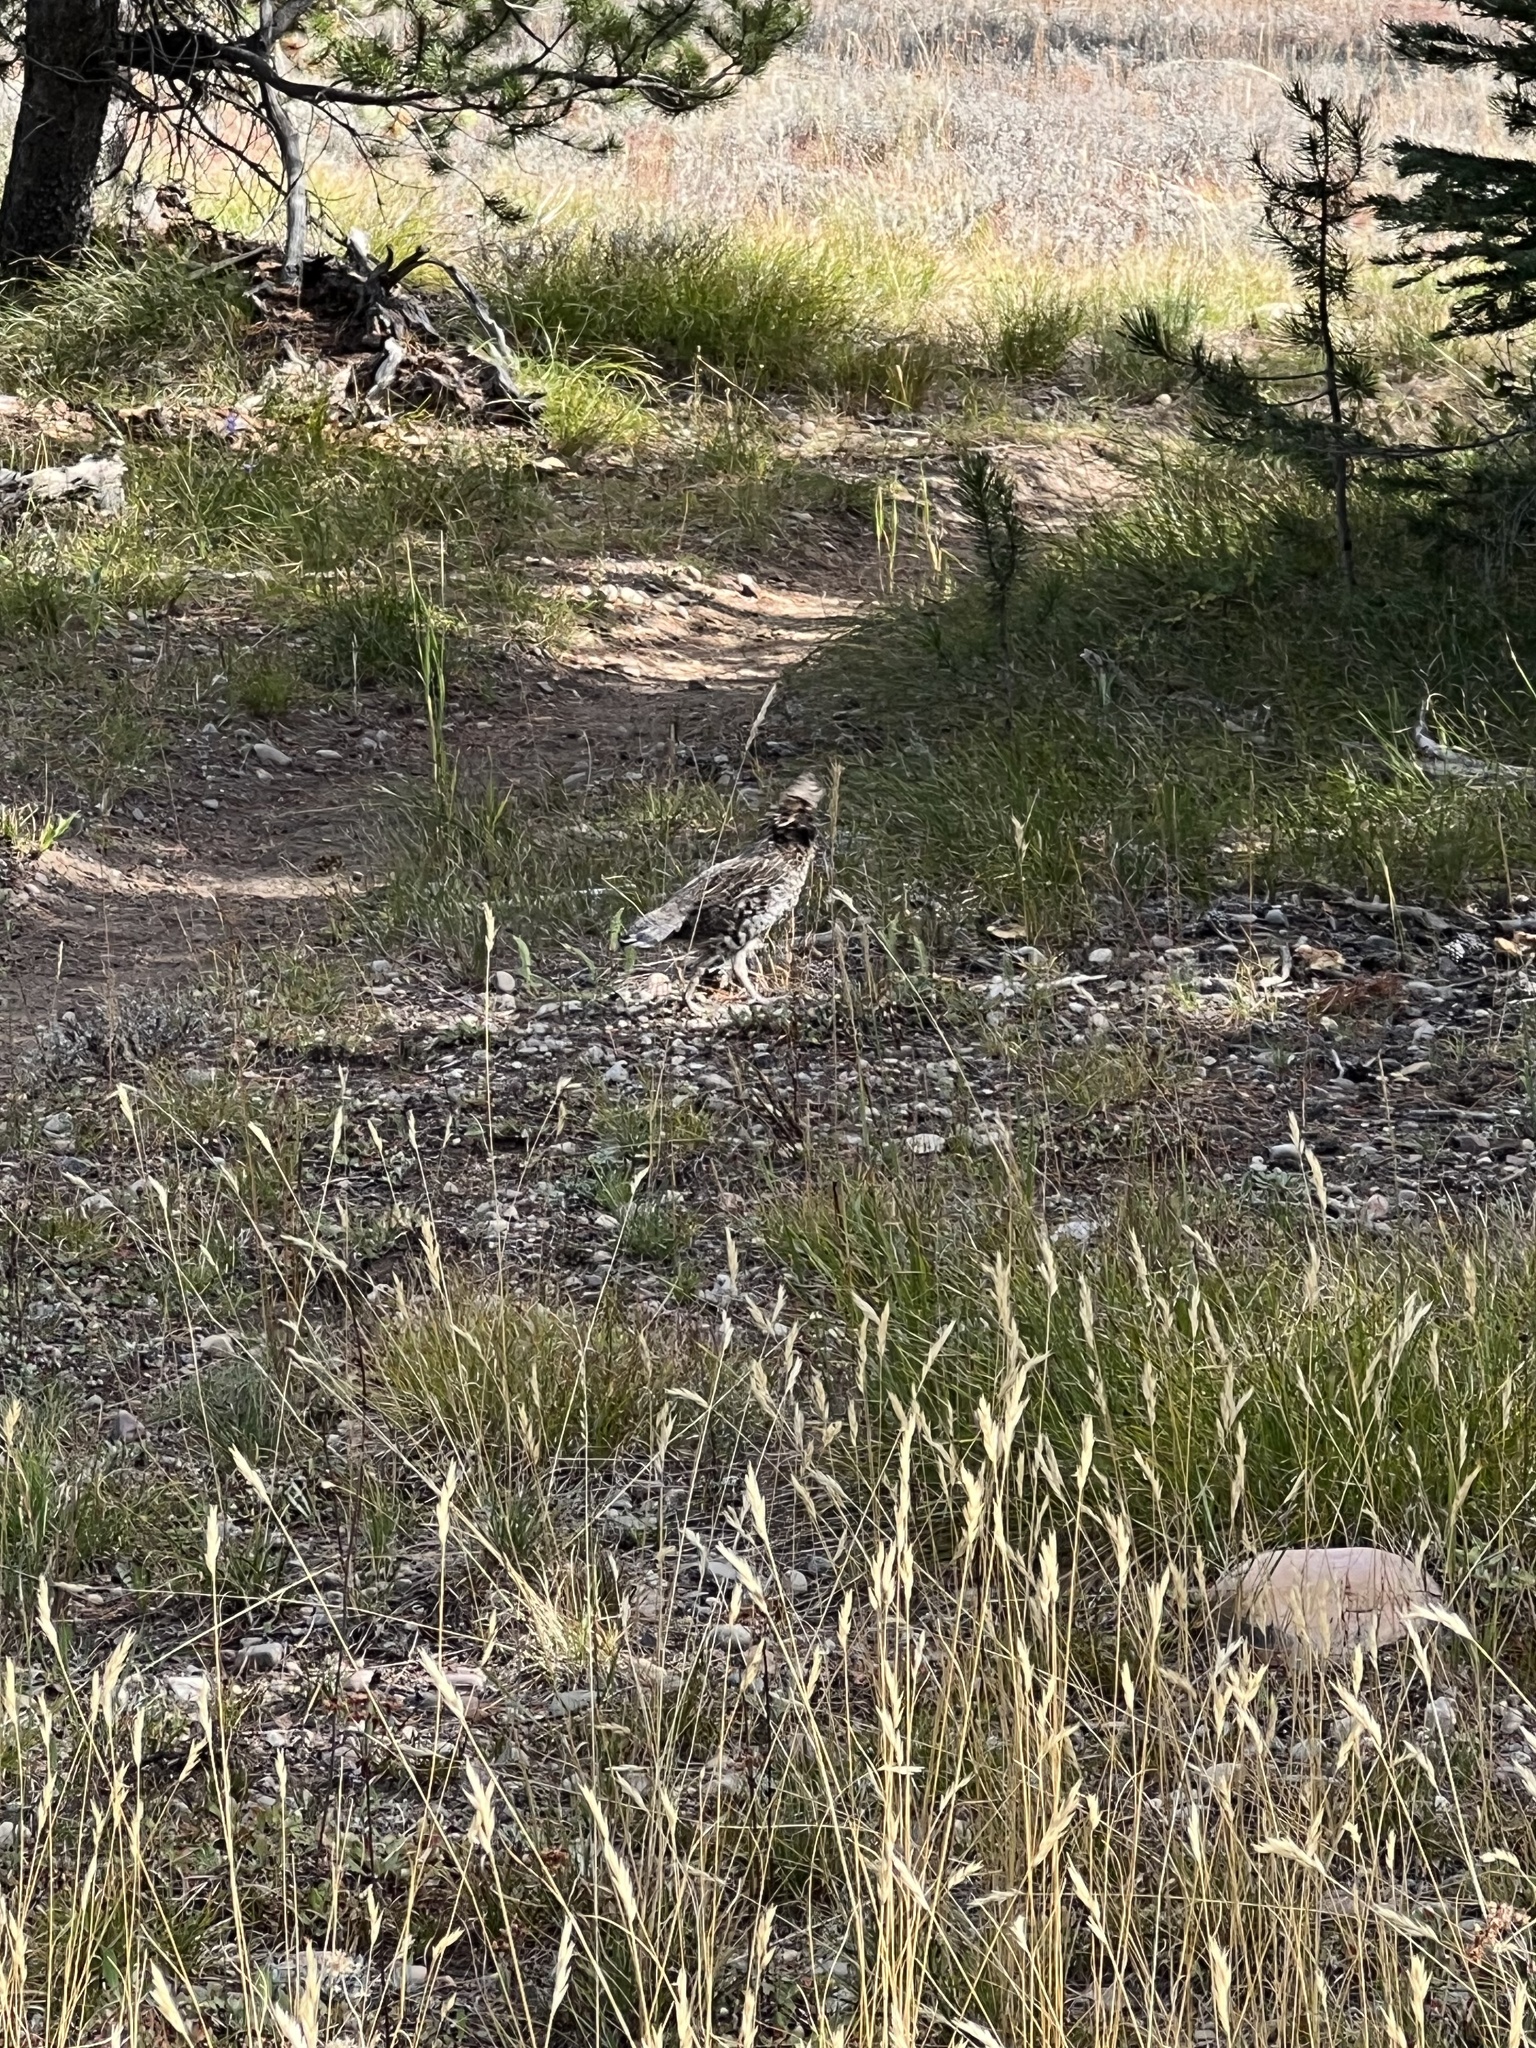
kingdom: Animalia
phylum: Chordata
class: Aves
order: Galliformes
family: Phasianidae
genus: Bonasa
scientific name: Bonasa umbellus
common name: Ruffed grouse
